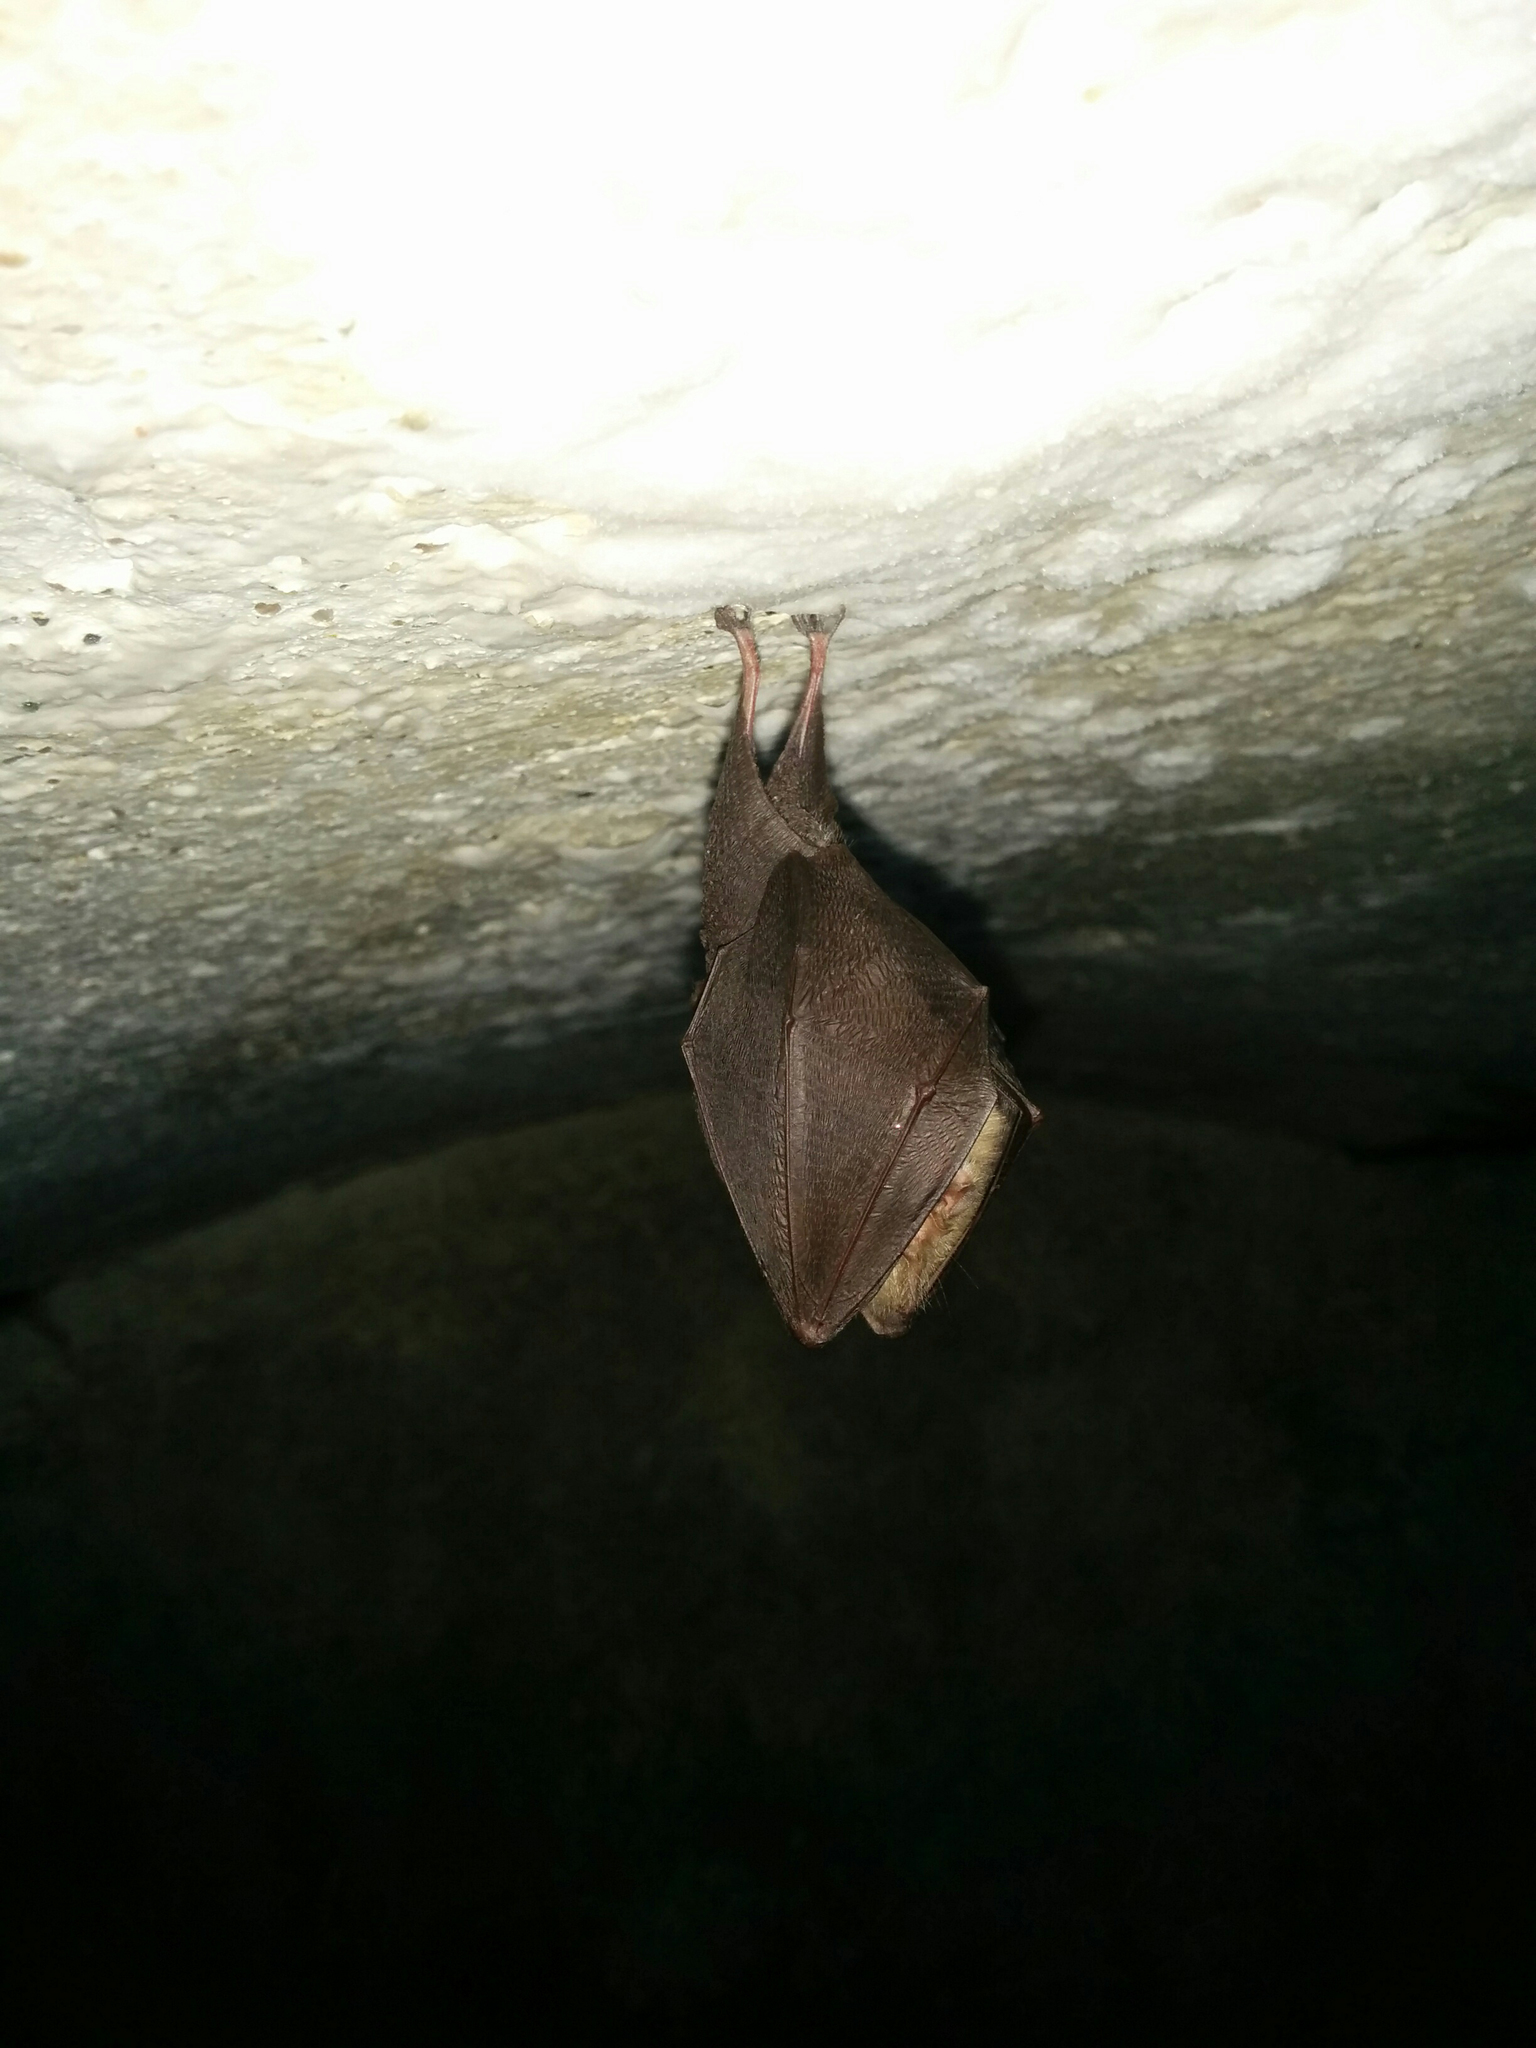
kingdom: Animalia
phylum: Chordata
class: Mammalia
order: Chiroptera
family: Rhinolophidae
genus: Rhinolophus
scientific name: Rhinolophus hipposideros
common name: Lesser horseshoe bat
